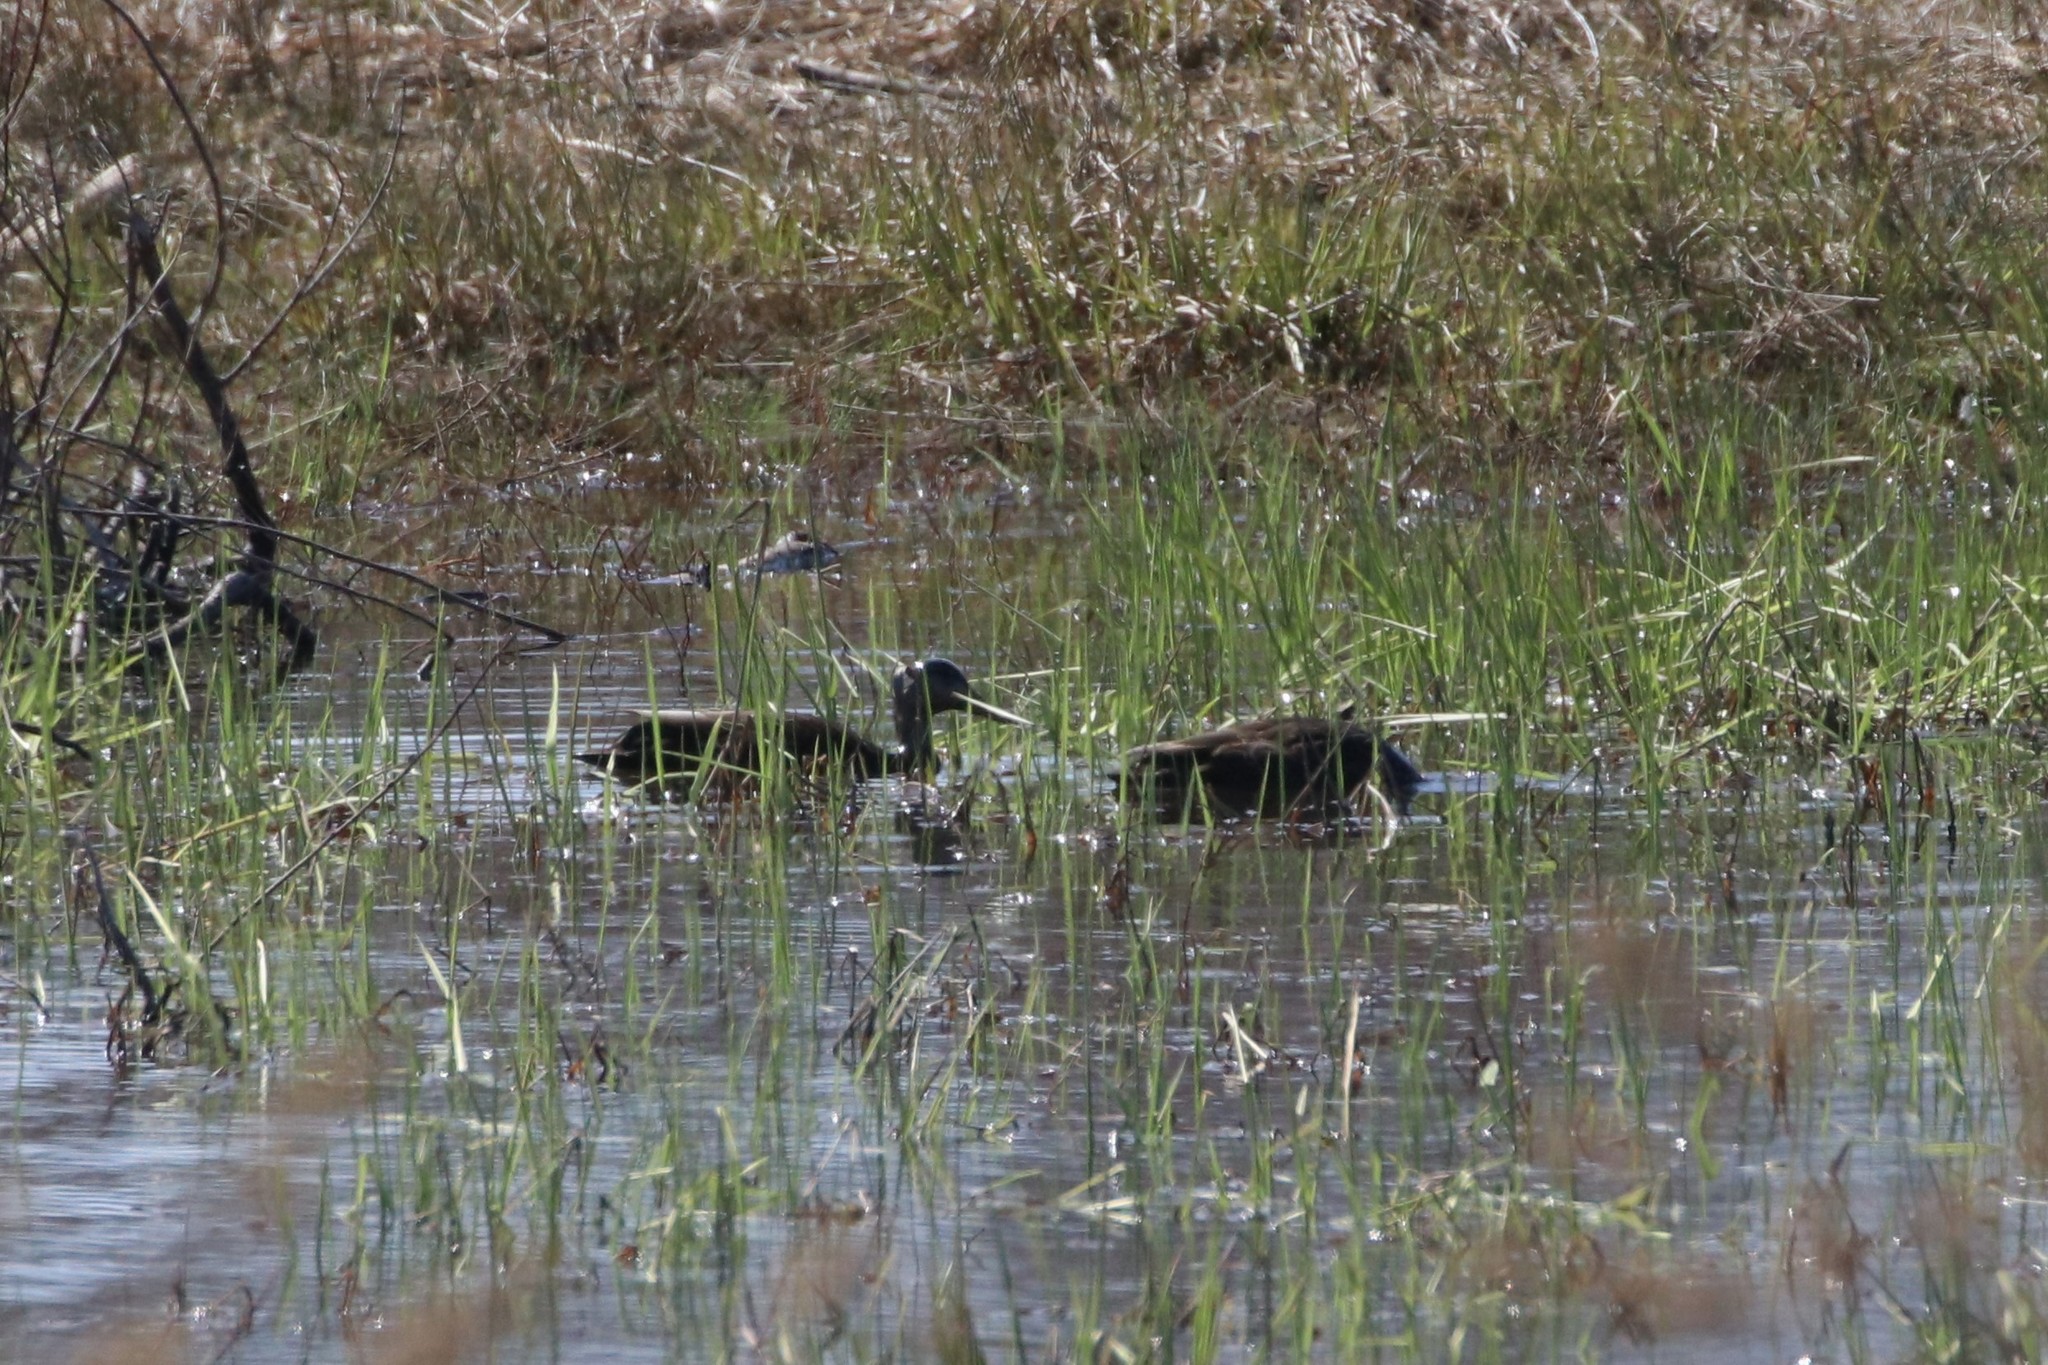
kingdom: Animalia
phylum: Chordata
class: Aves
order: Anseriformes
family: Anatidae
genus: Anas
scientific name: Anas rubripes
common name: American black duck
